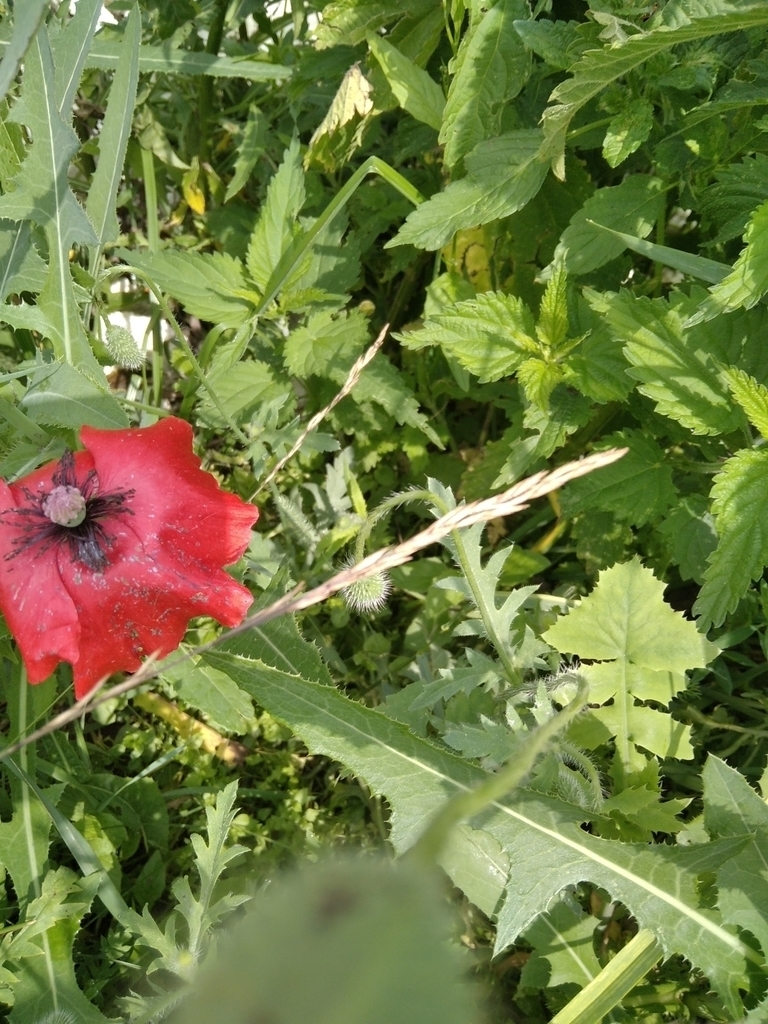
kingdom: Plantae
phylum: Tracheophyta
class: Magnoliopsida
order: Ranunculales
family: Papaveraceae
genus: Papaver
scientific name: Papaver rhoeas
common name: Corn poppy
